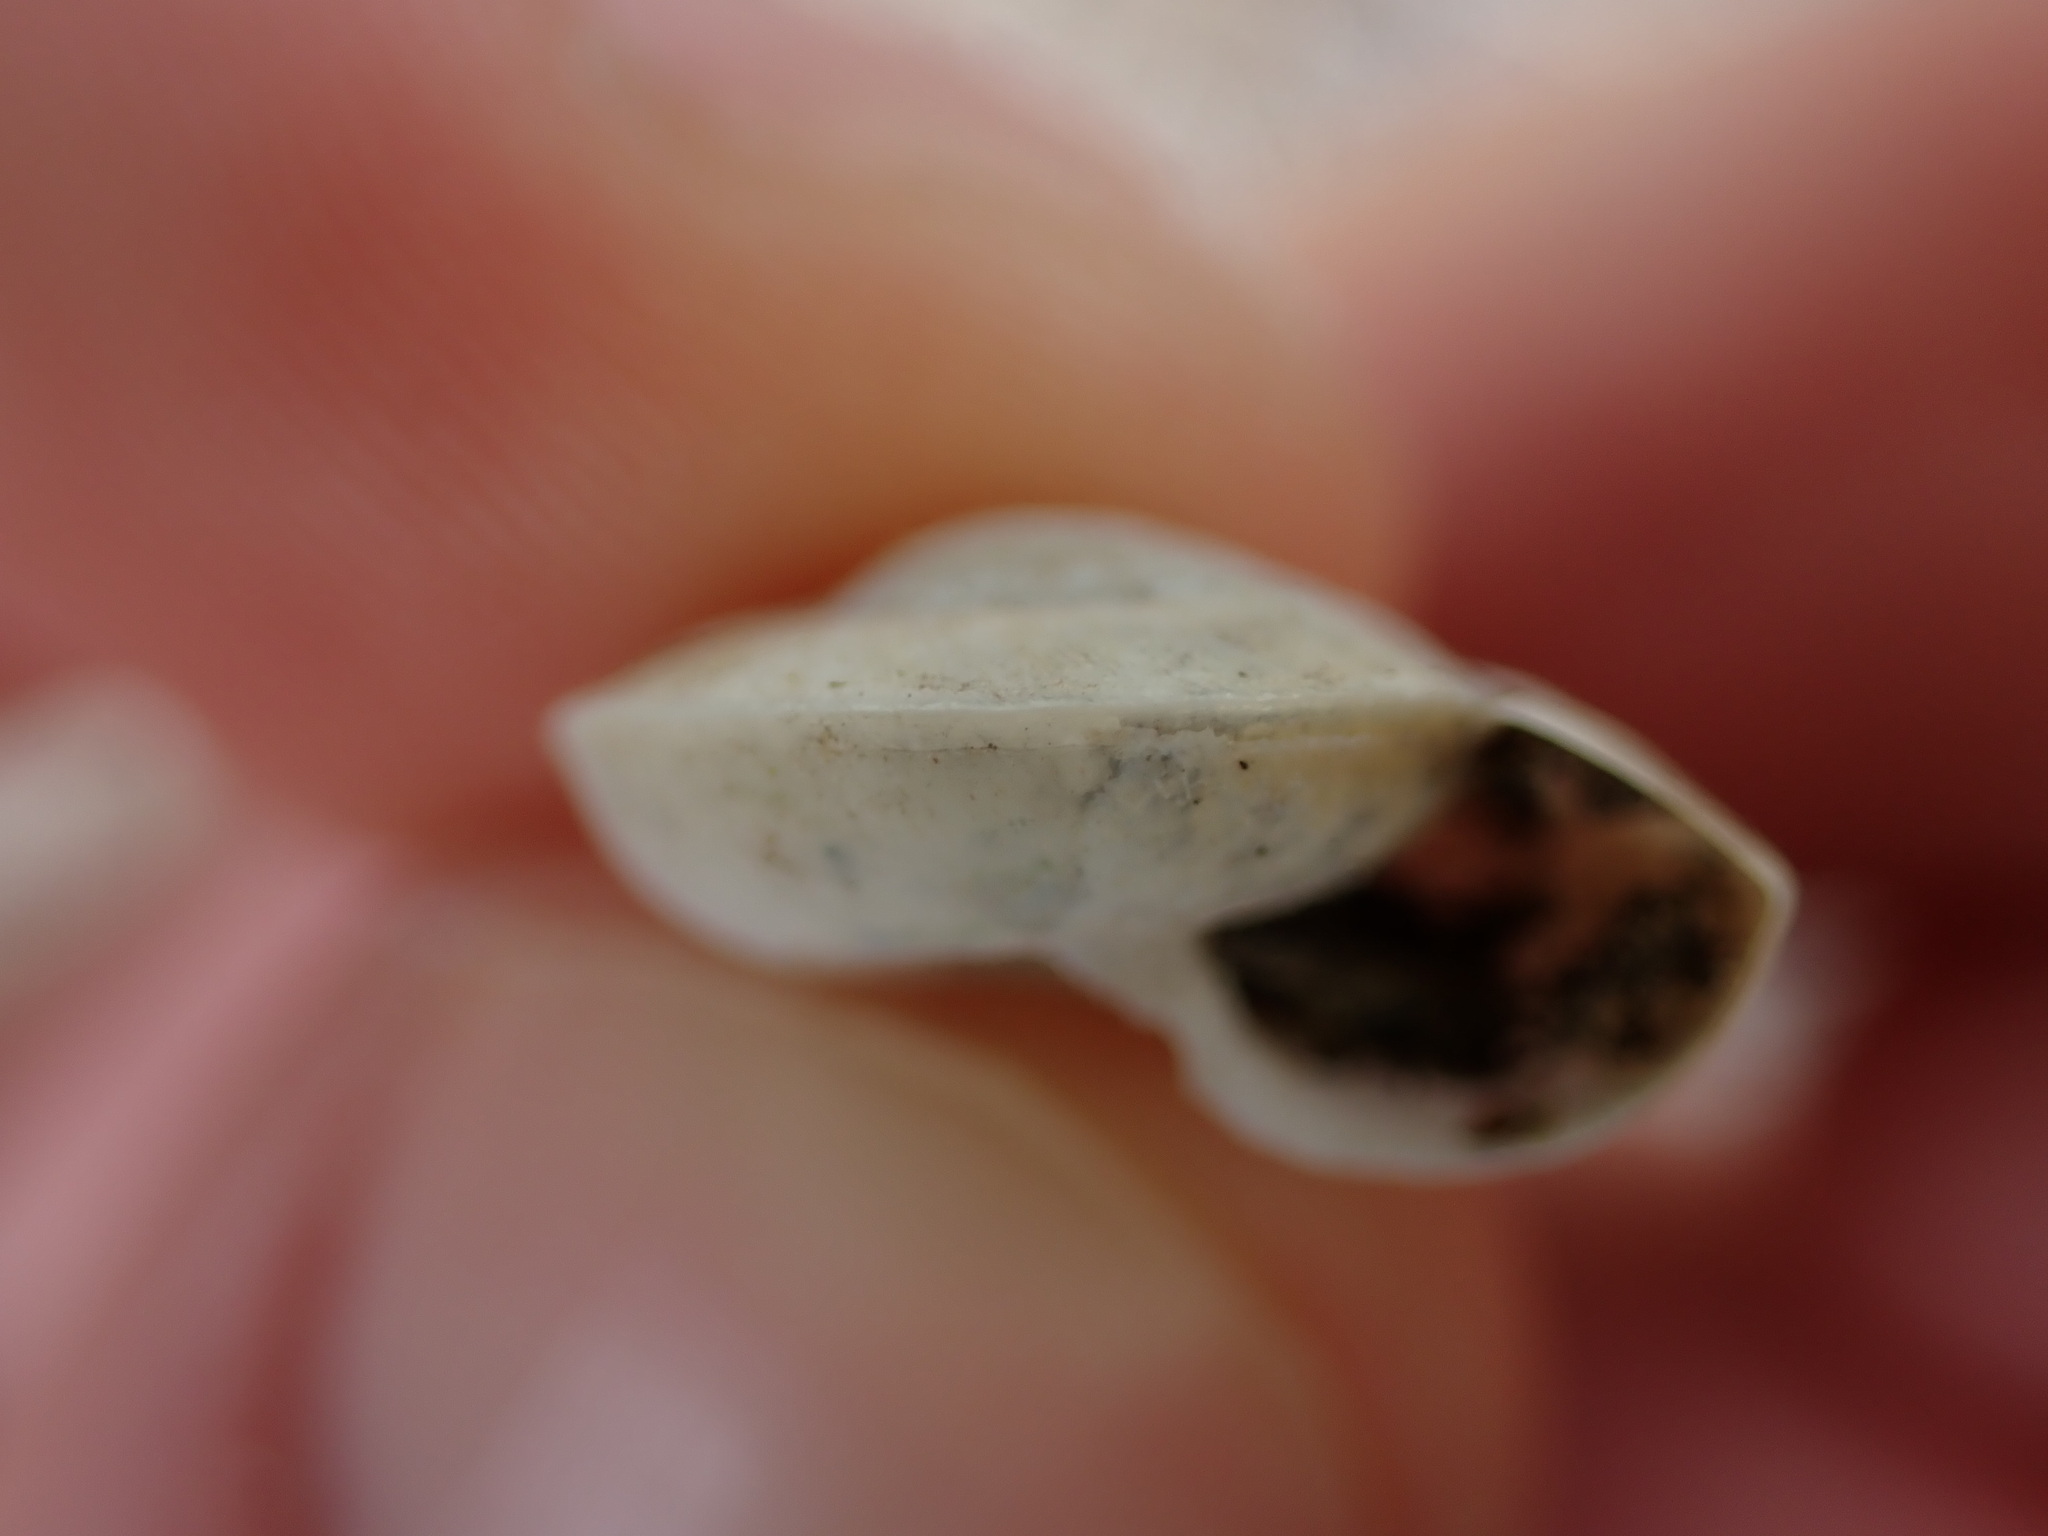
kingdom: Animalia
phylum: Mollusca
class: Gastropoda
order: Stylommatophora
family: Zonitidae
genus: Zonites
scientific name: Zonites algirus
